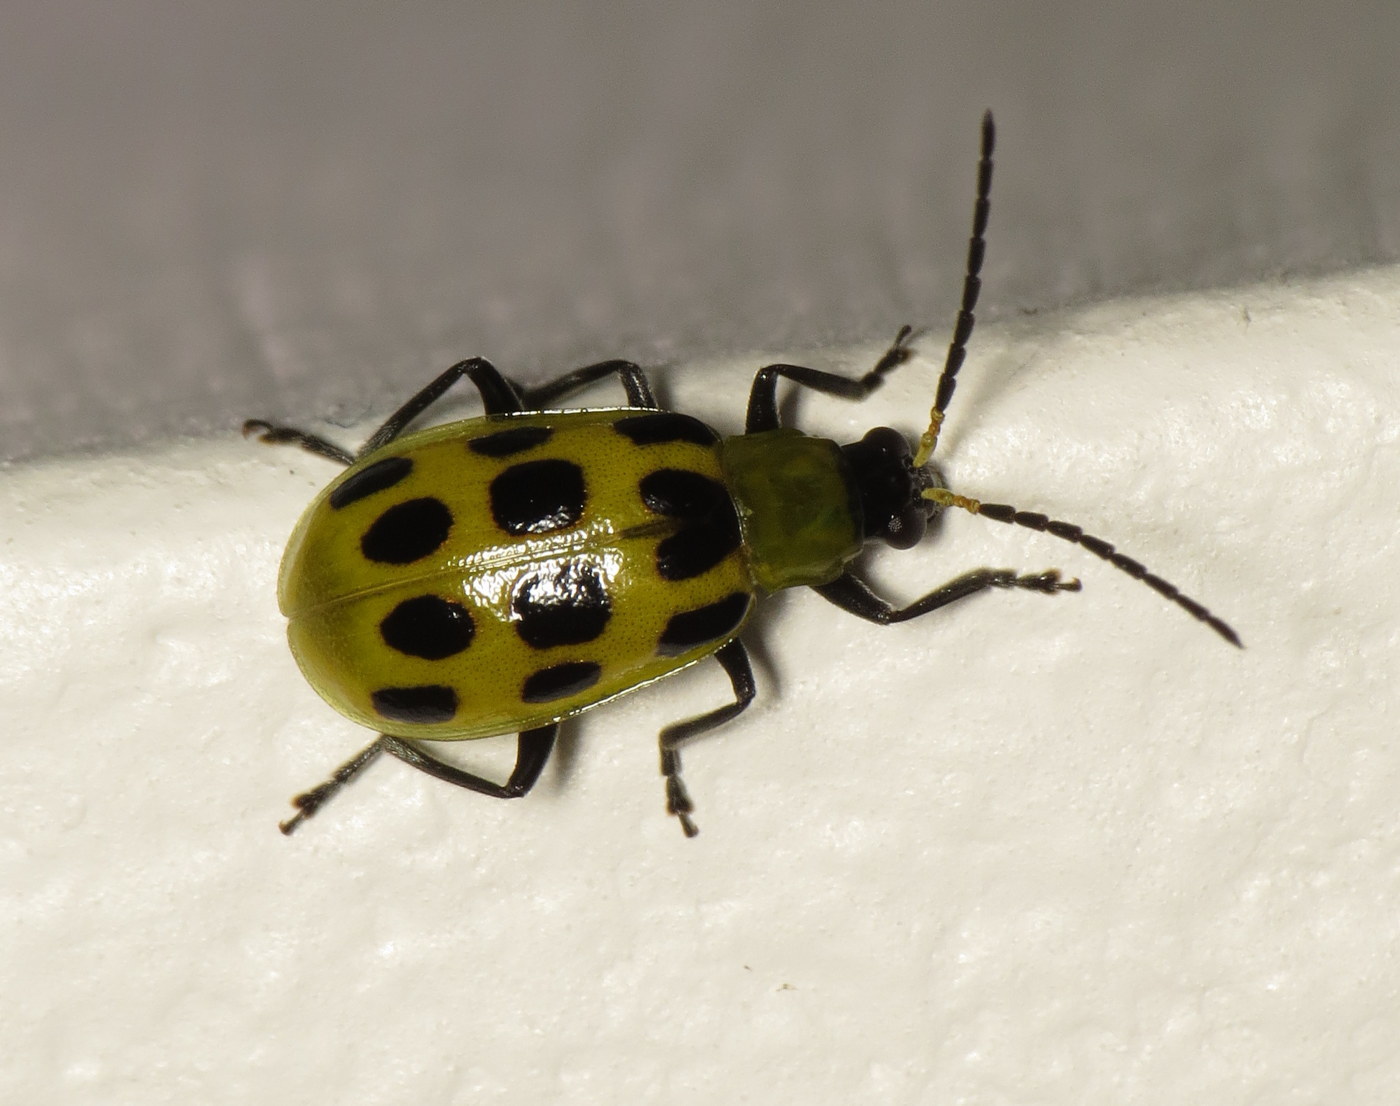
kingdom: Animalia
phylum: Arthropoda
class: Insecta
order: Coleoptera
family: Chrysomelidae
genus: Diabrotica
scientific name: Diabrotica undecimpunctata
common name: Spotted cucumber beetle
